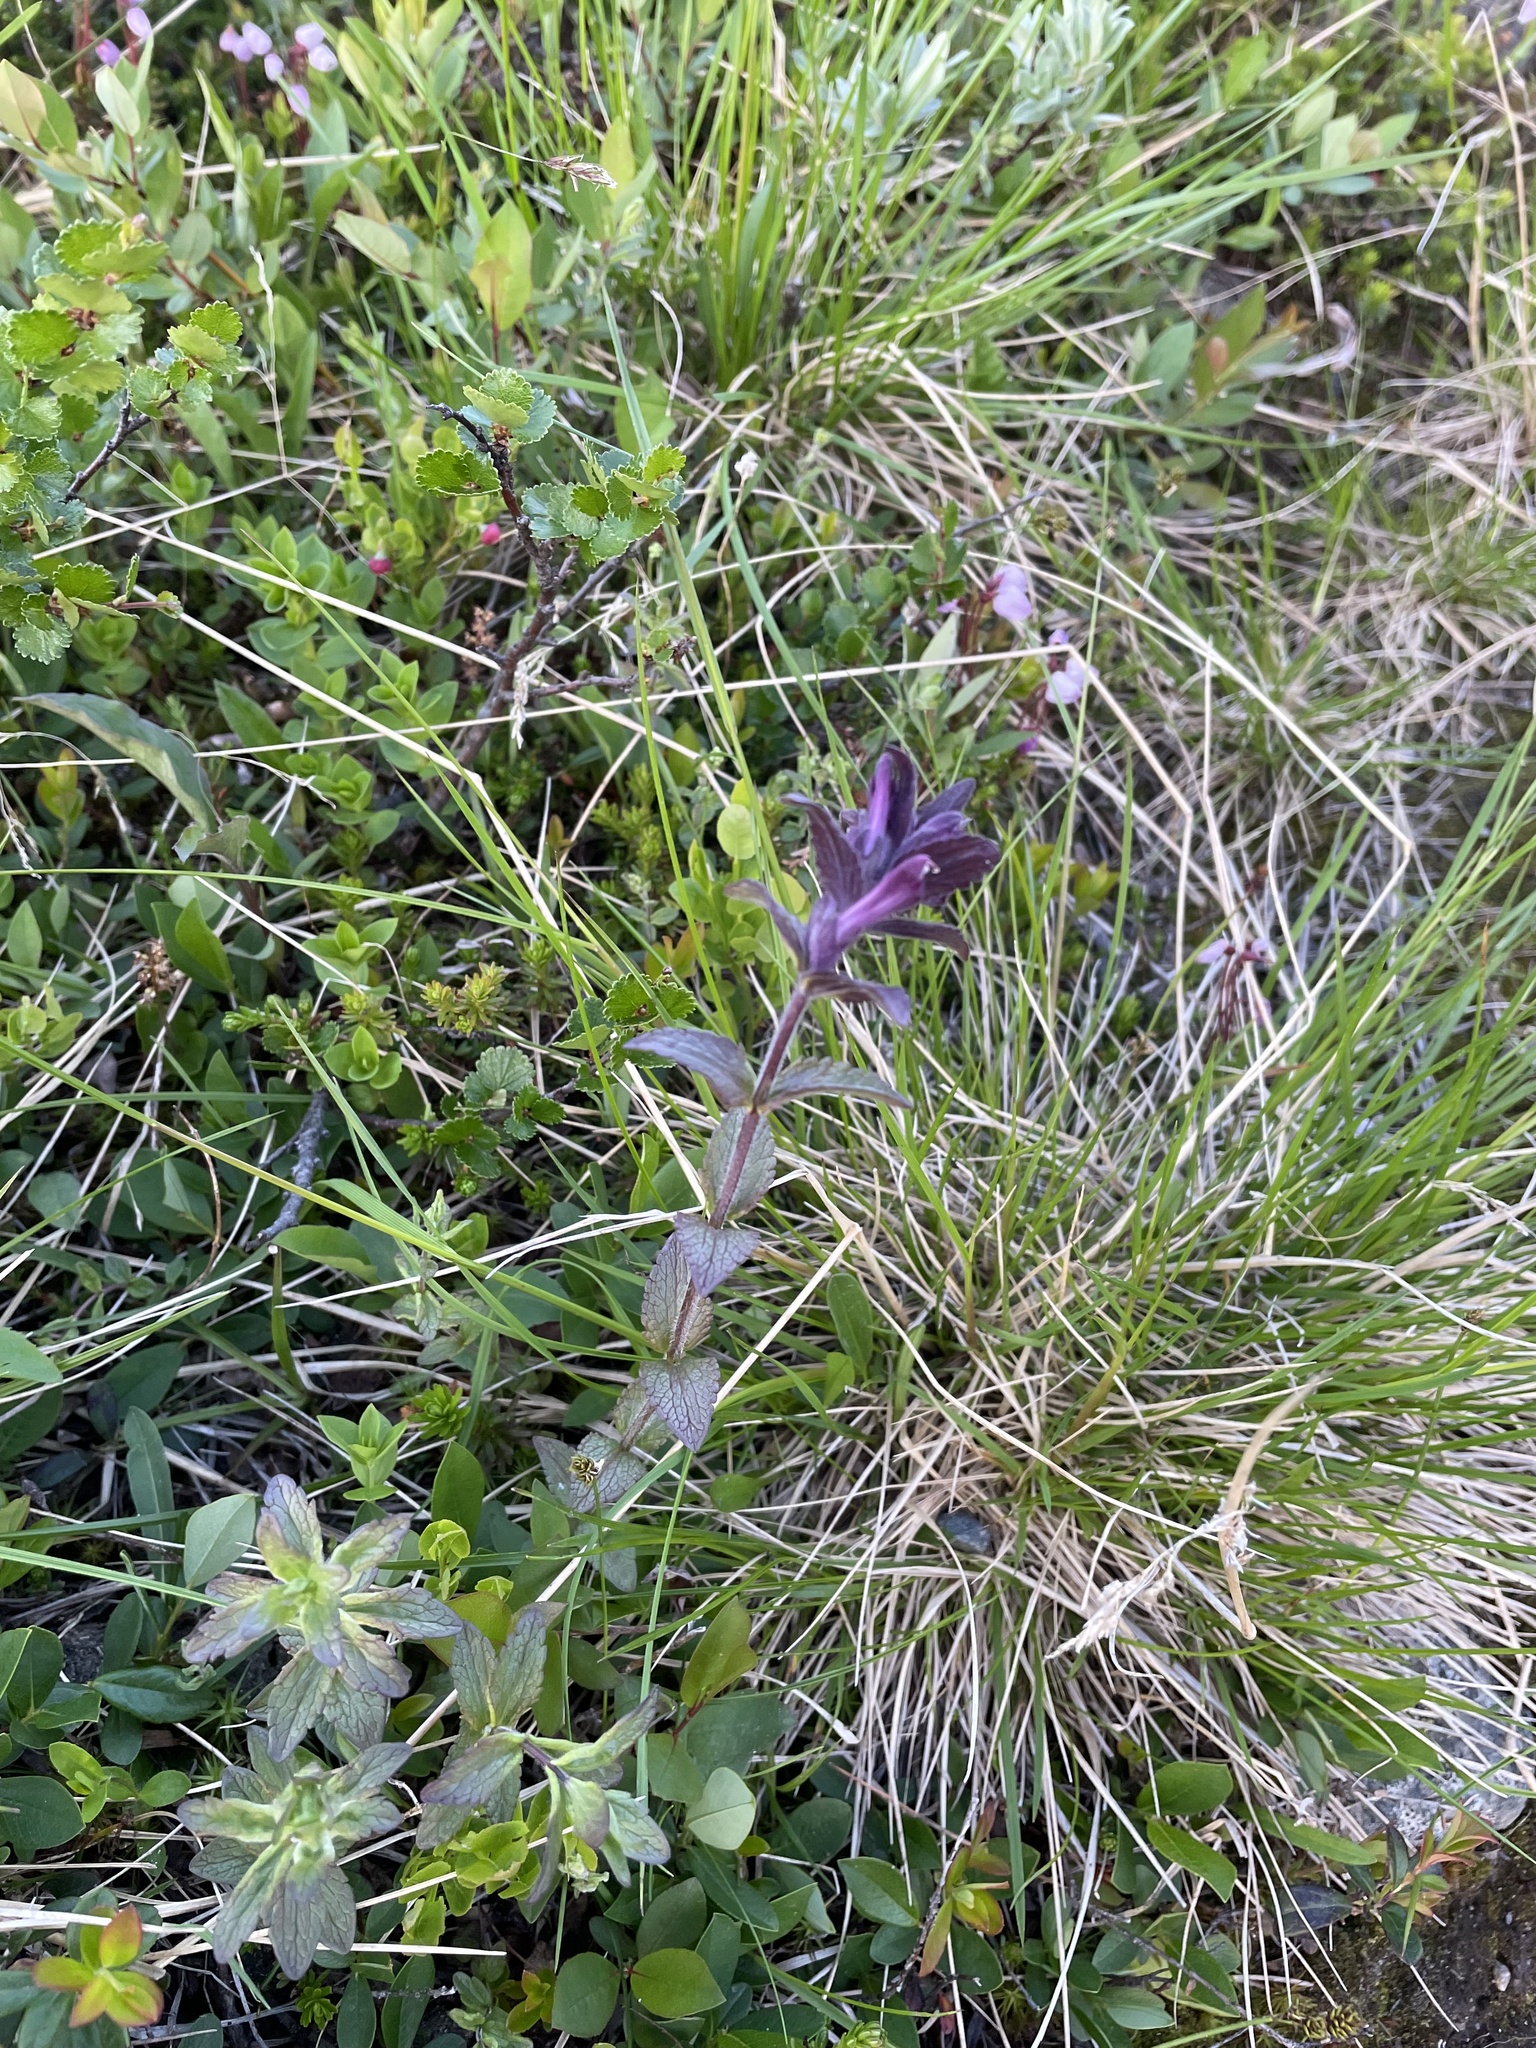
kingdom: Plantae
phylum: Tracheophyta
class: Magnoliopsida
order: Lamiales
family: Orobanchaceae
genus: Bartsia
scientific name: Bartsia alpina
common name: Alpine bartsia
